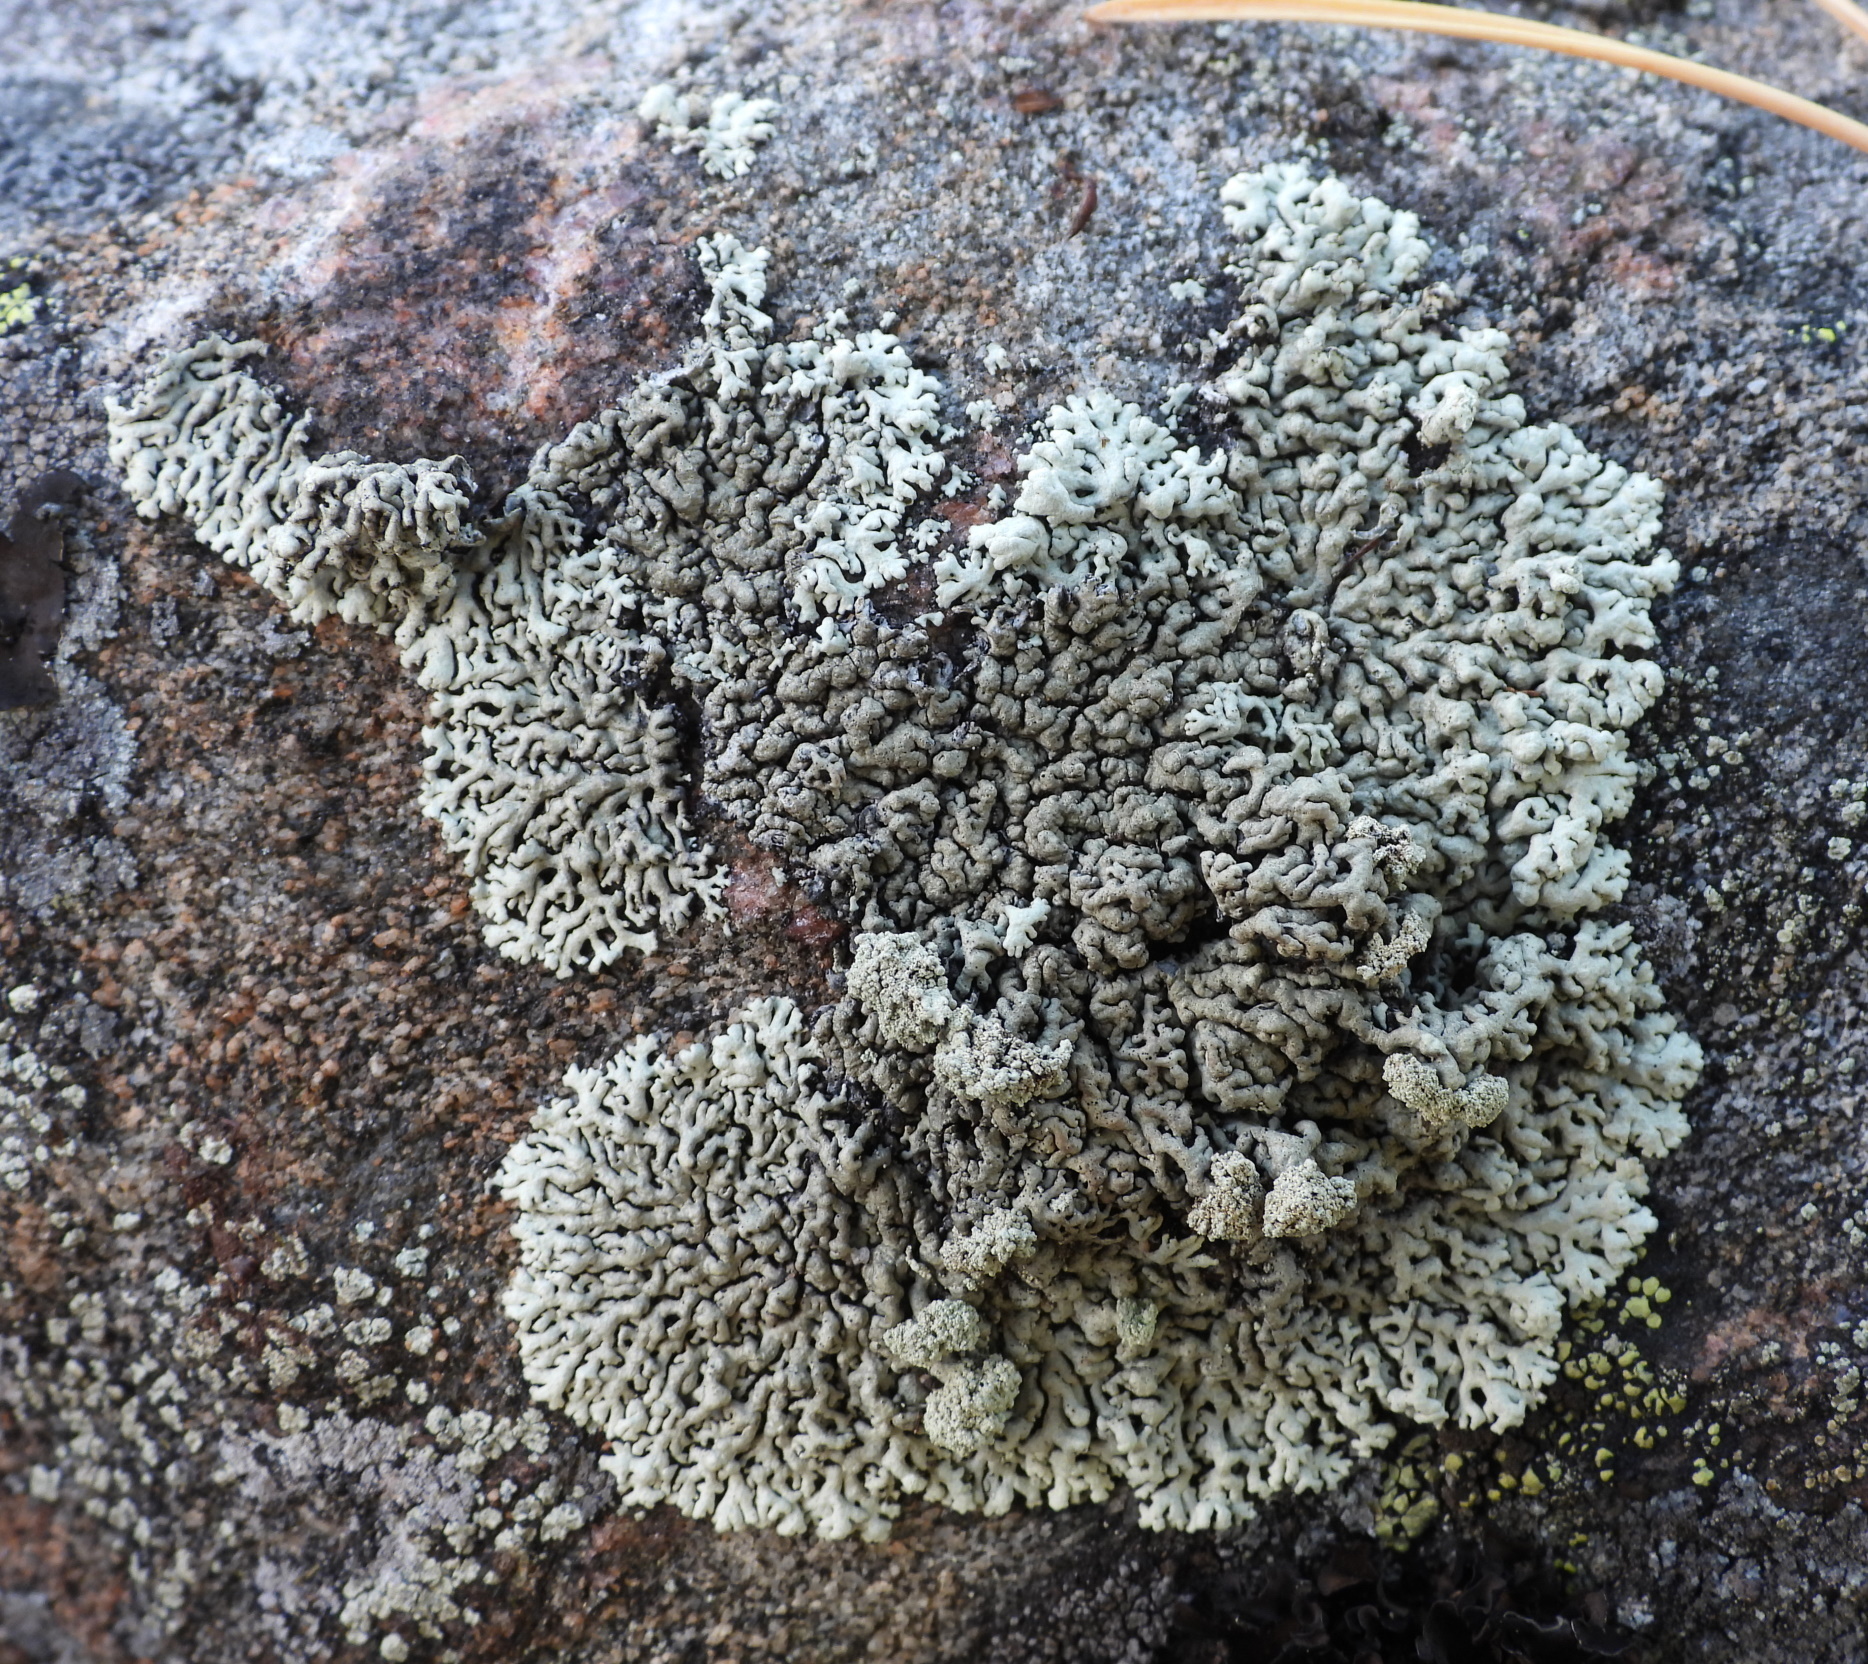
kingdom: Fungi
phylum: Ascomycota
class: Lecanoromycetes
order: Lecanorales
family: Parmeliaceae
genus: Arctoparmelia
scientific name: Arctoparmelia incurva
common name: Bent ring lichen
